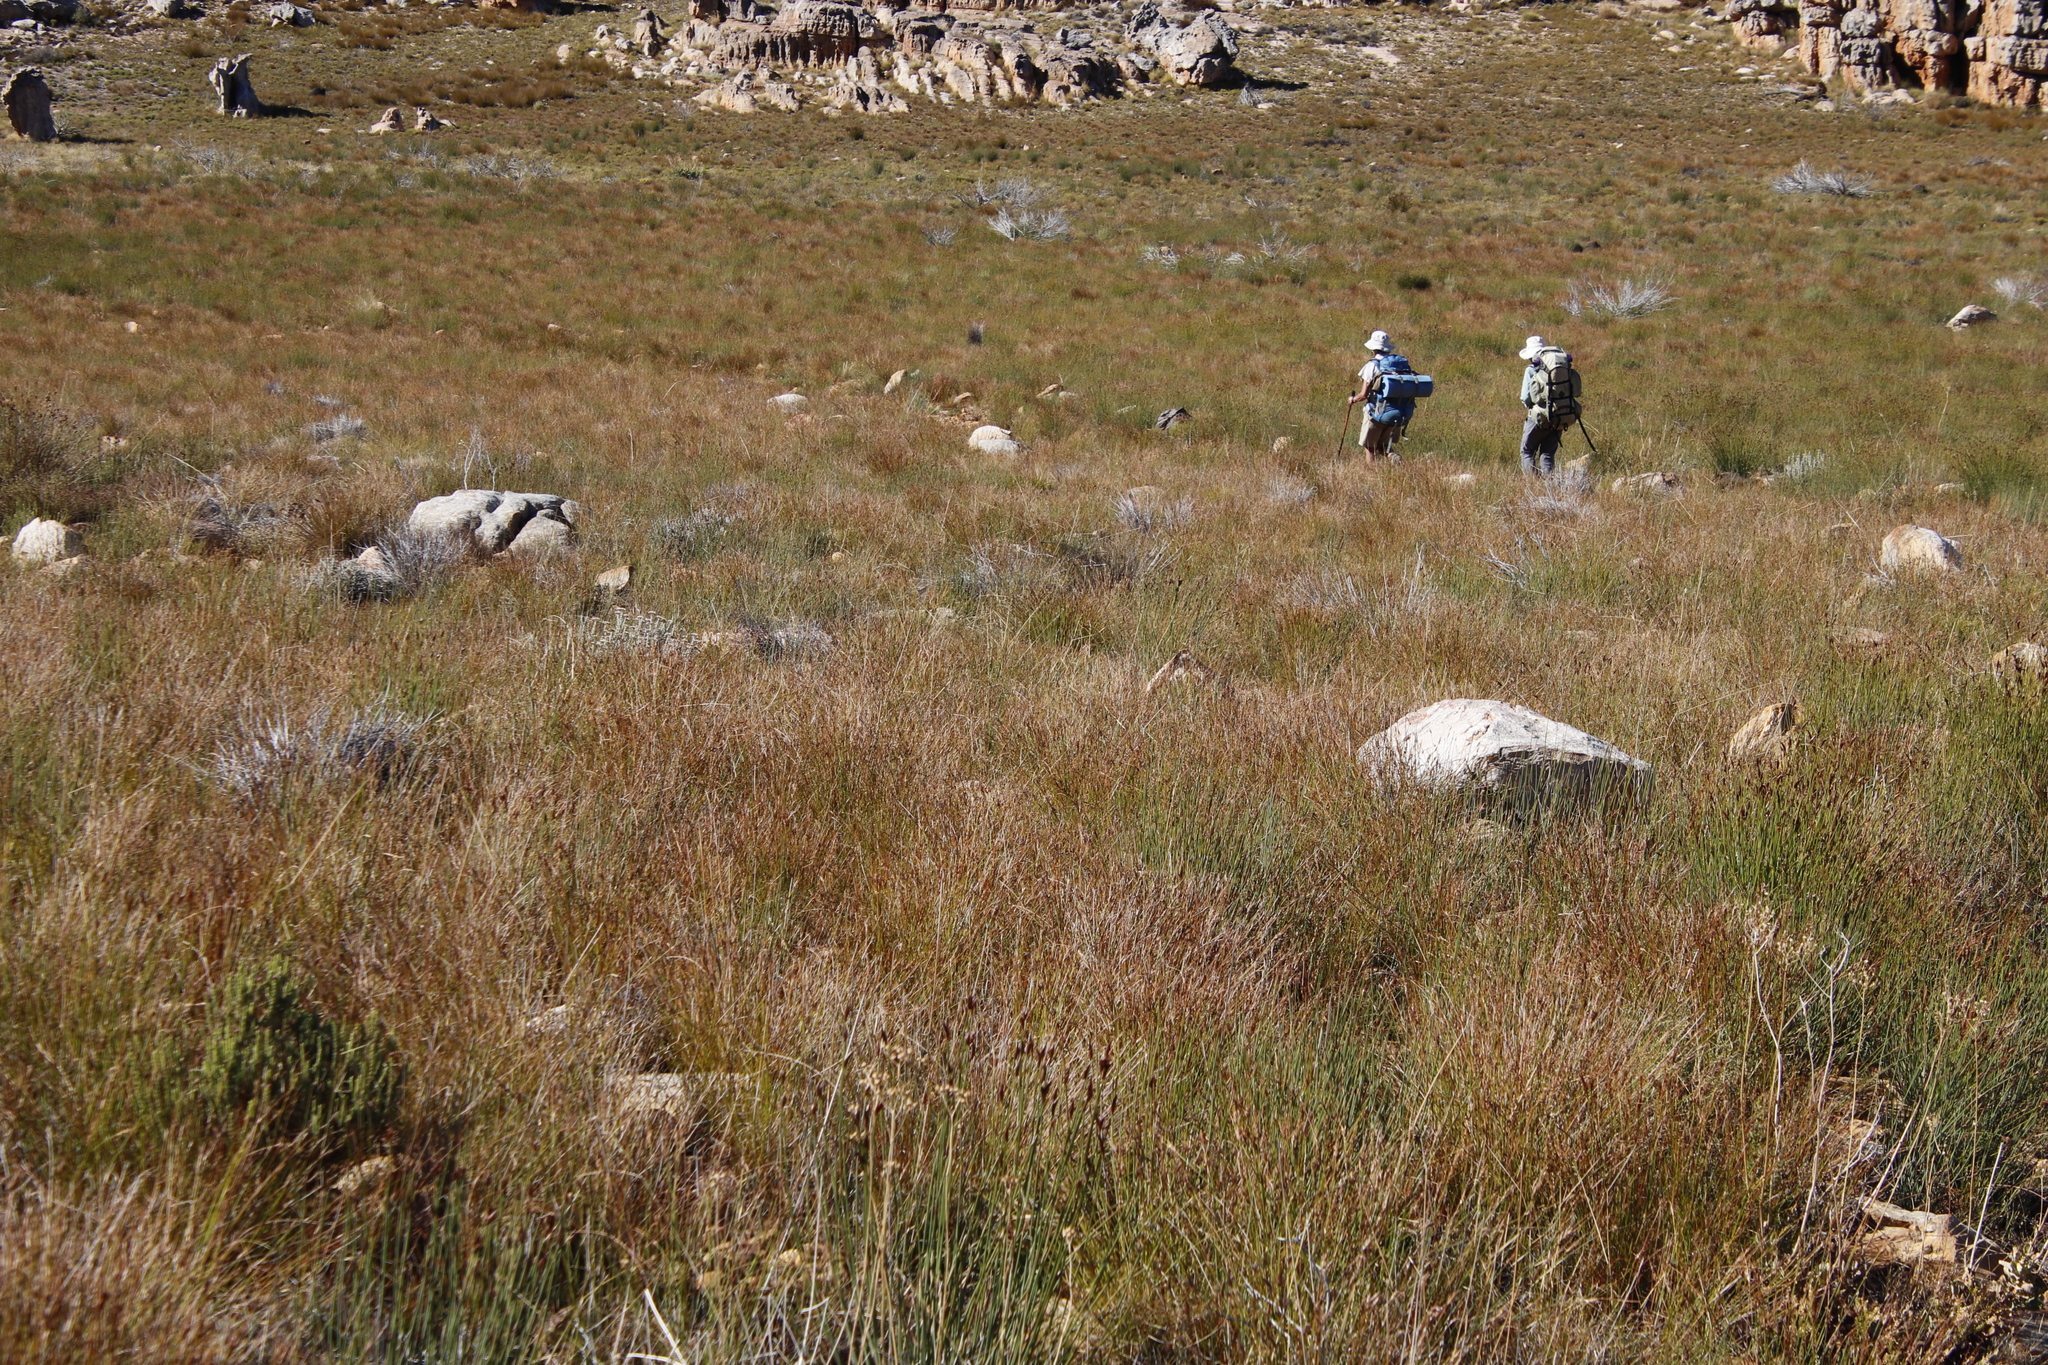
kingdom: Plantae
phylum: Tracheophyta
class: Liliopsida
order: Poales
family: Cyperaceae
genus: Schoenus
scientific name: Schoenus pseudoloreus
